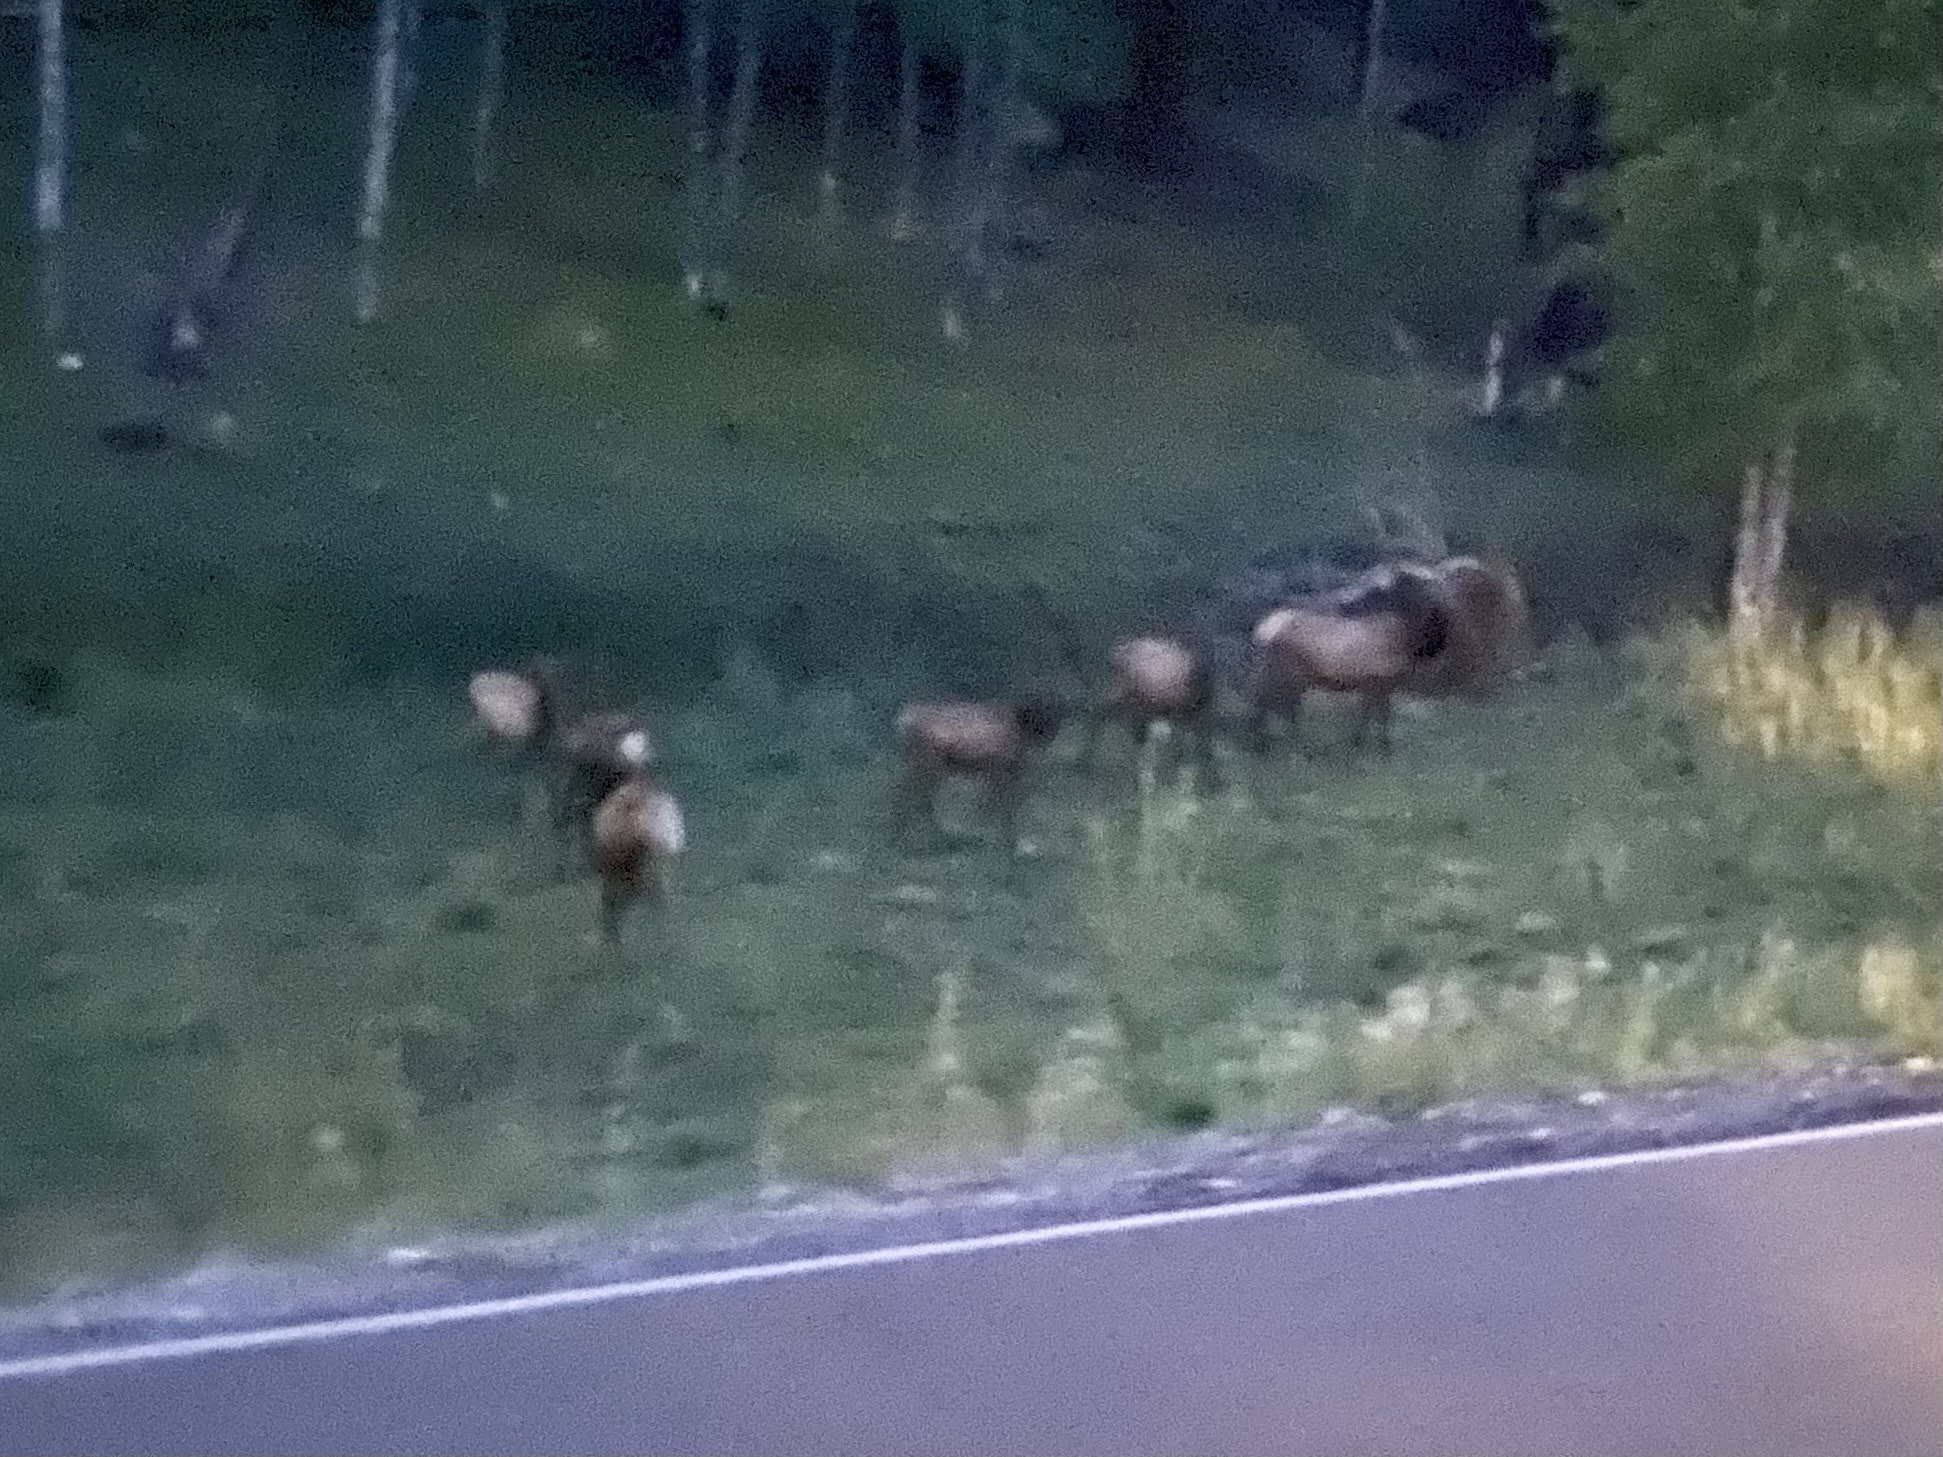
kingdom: Animalia
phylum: Chordata
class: Mammalia
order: Artiodactyla
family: Cervidae
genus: Cervus
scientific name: Cervus elaphus
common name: Red deer
